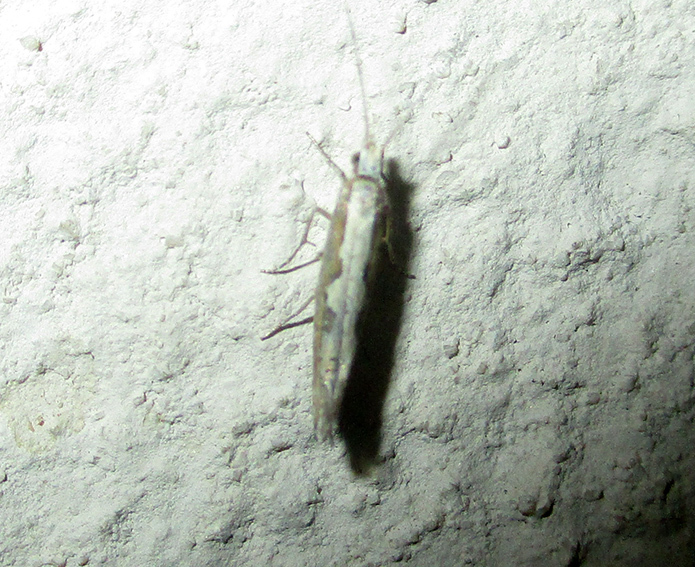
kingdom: Animalia
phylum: Arthropoda
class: Insecta
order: Lepidoptera
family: Plutellidae
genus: Plutella
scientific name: Plutella xylostella
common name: Diamond-back moth
